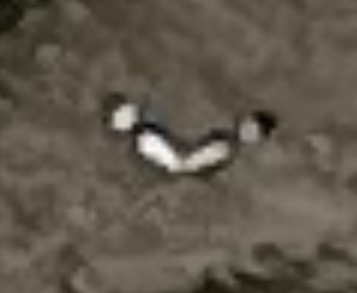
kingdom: Animalia
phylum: Arthropoda
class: Insecta
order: Lepidoptera
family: Nymphalidae
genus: Amauris
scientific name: Amauris niavius
